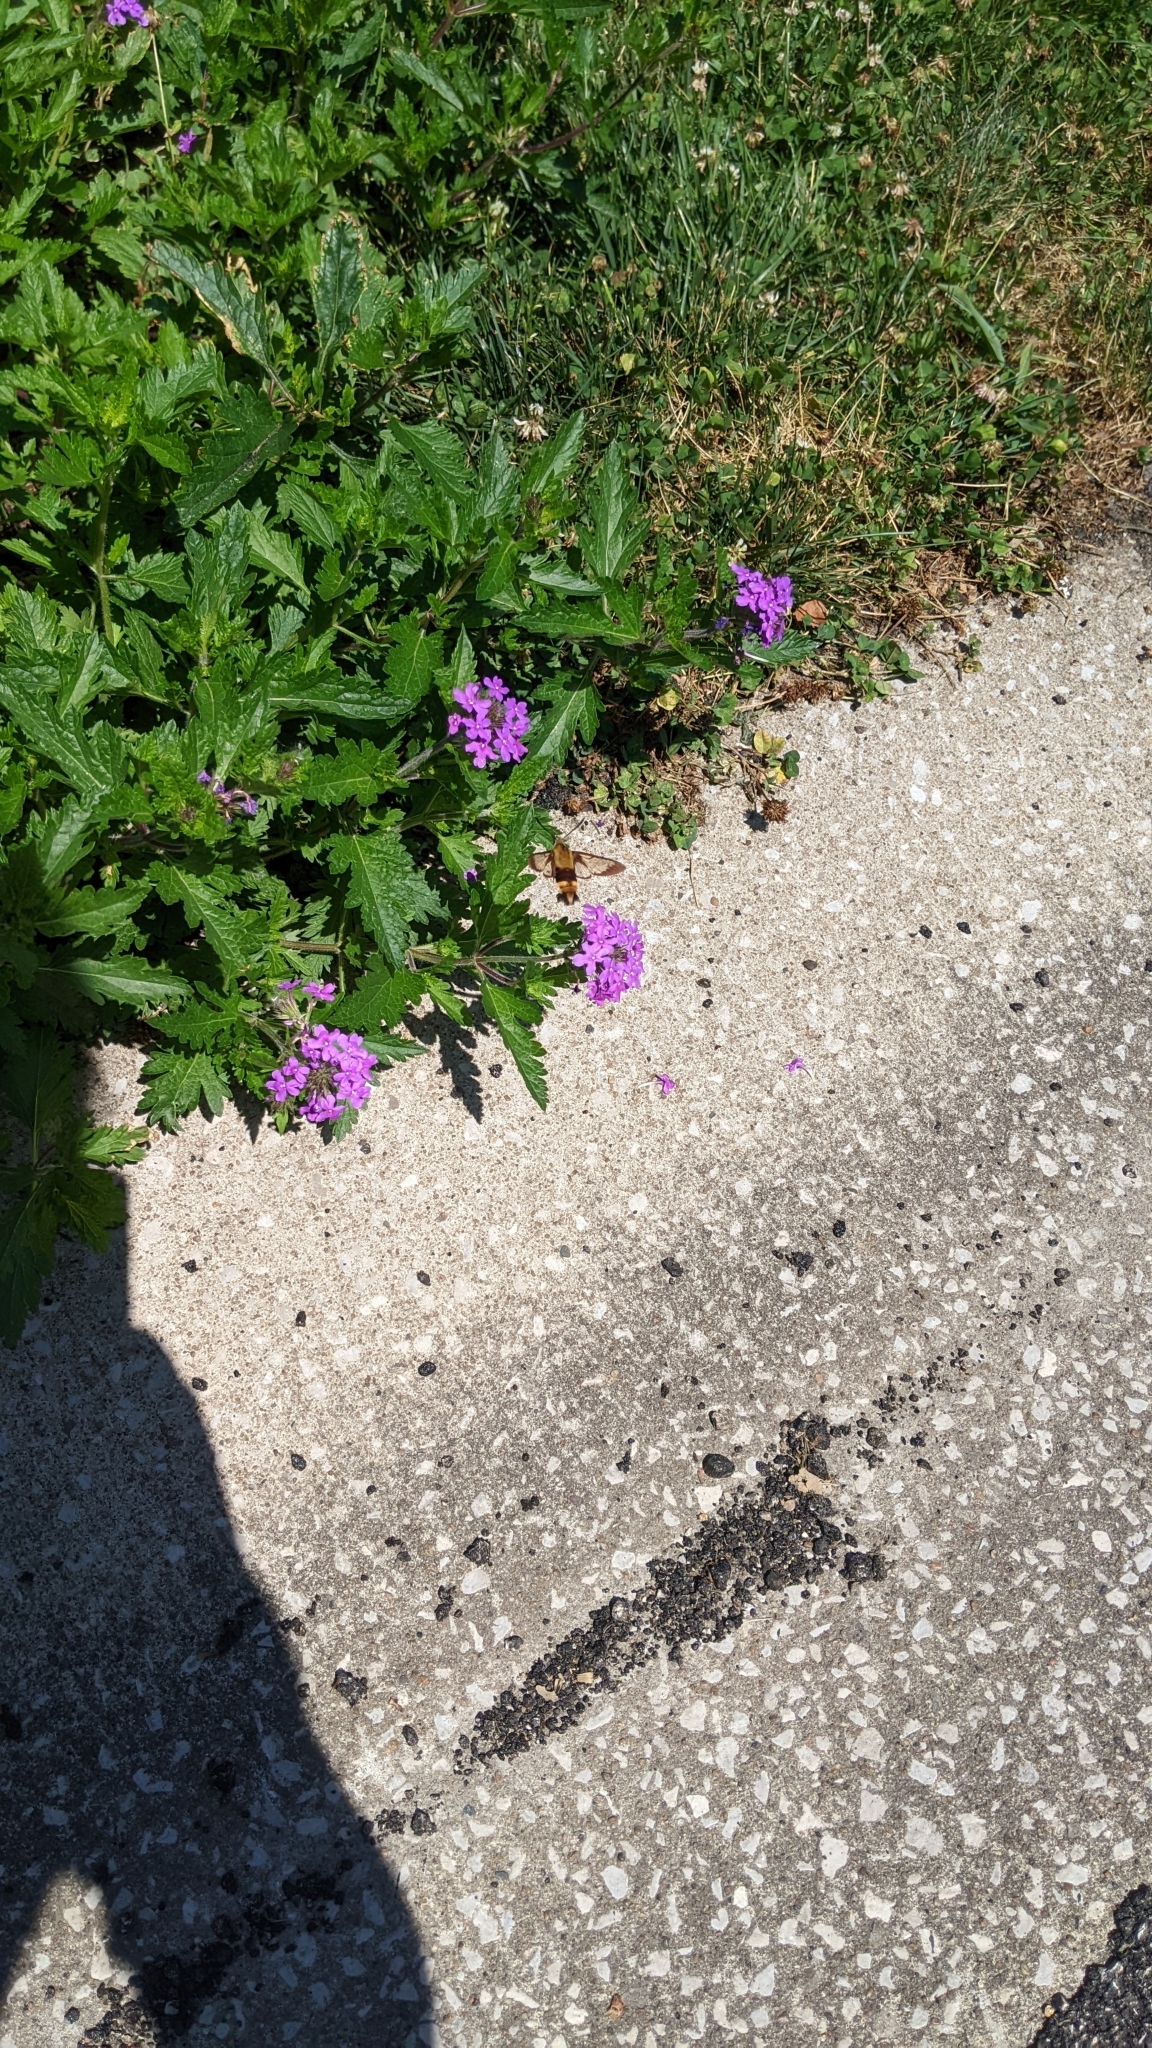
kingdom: Animalia
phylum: Arthropoda
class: Insecta
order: Lepidoptera
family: Sphingidae
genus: Hemaris
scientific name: Hemaris diffinis
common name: Bumblebee moth
